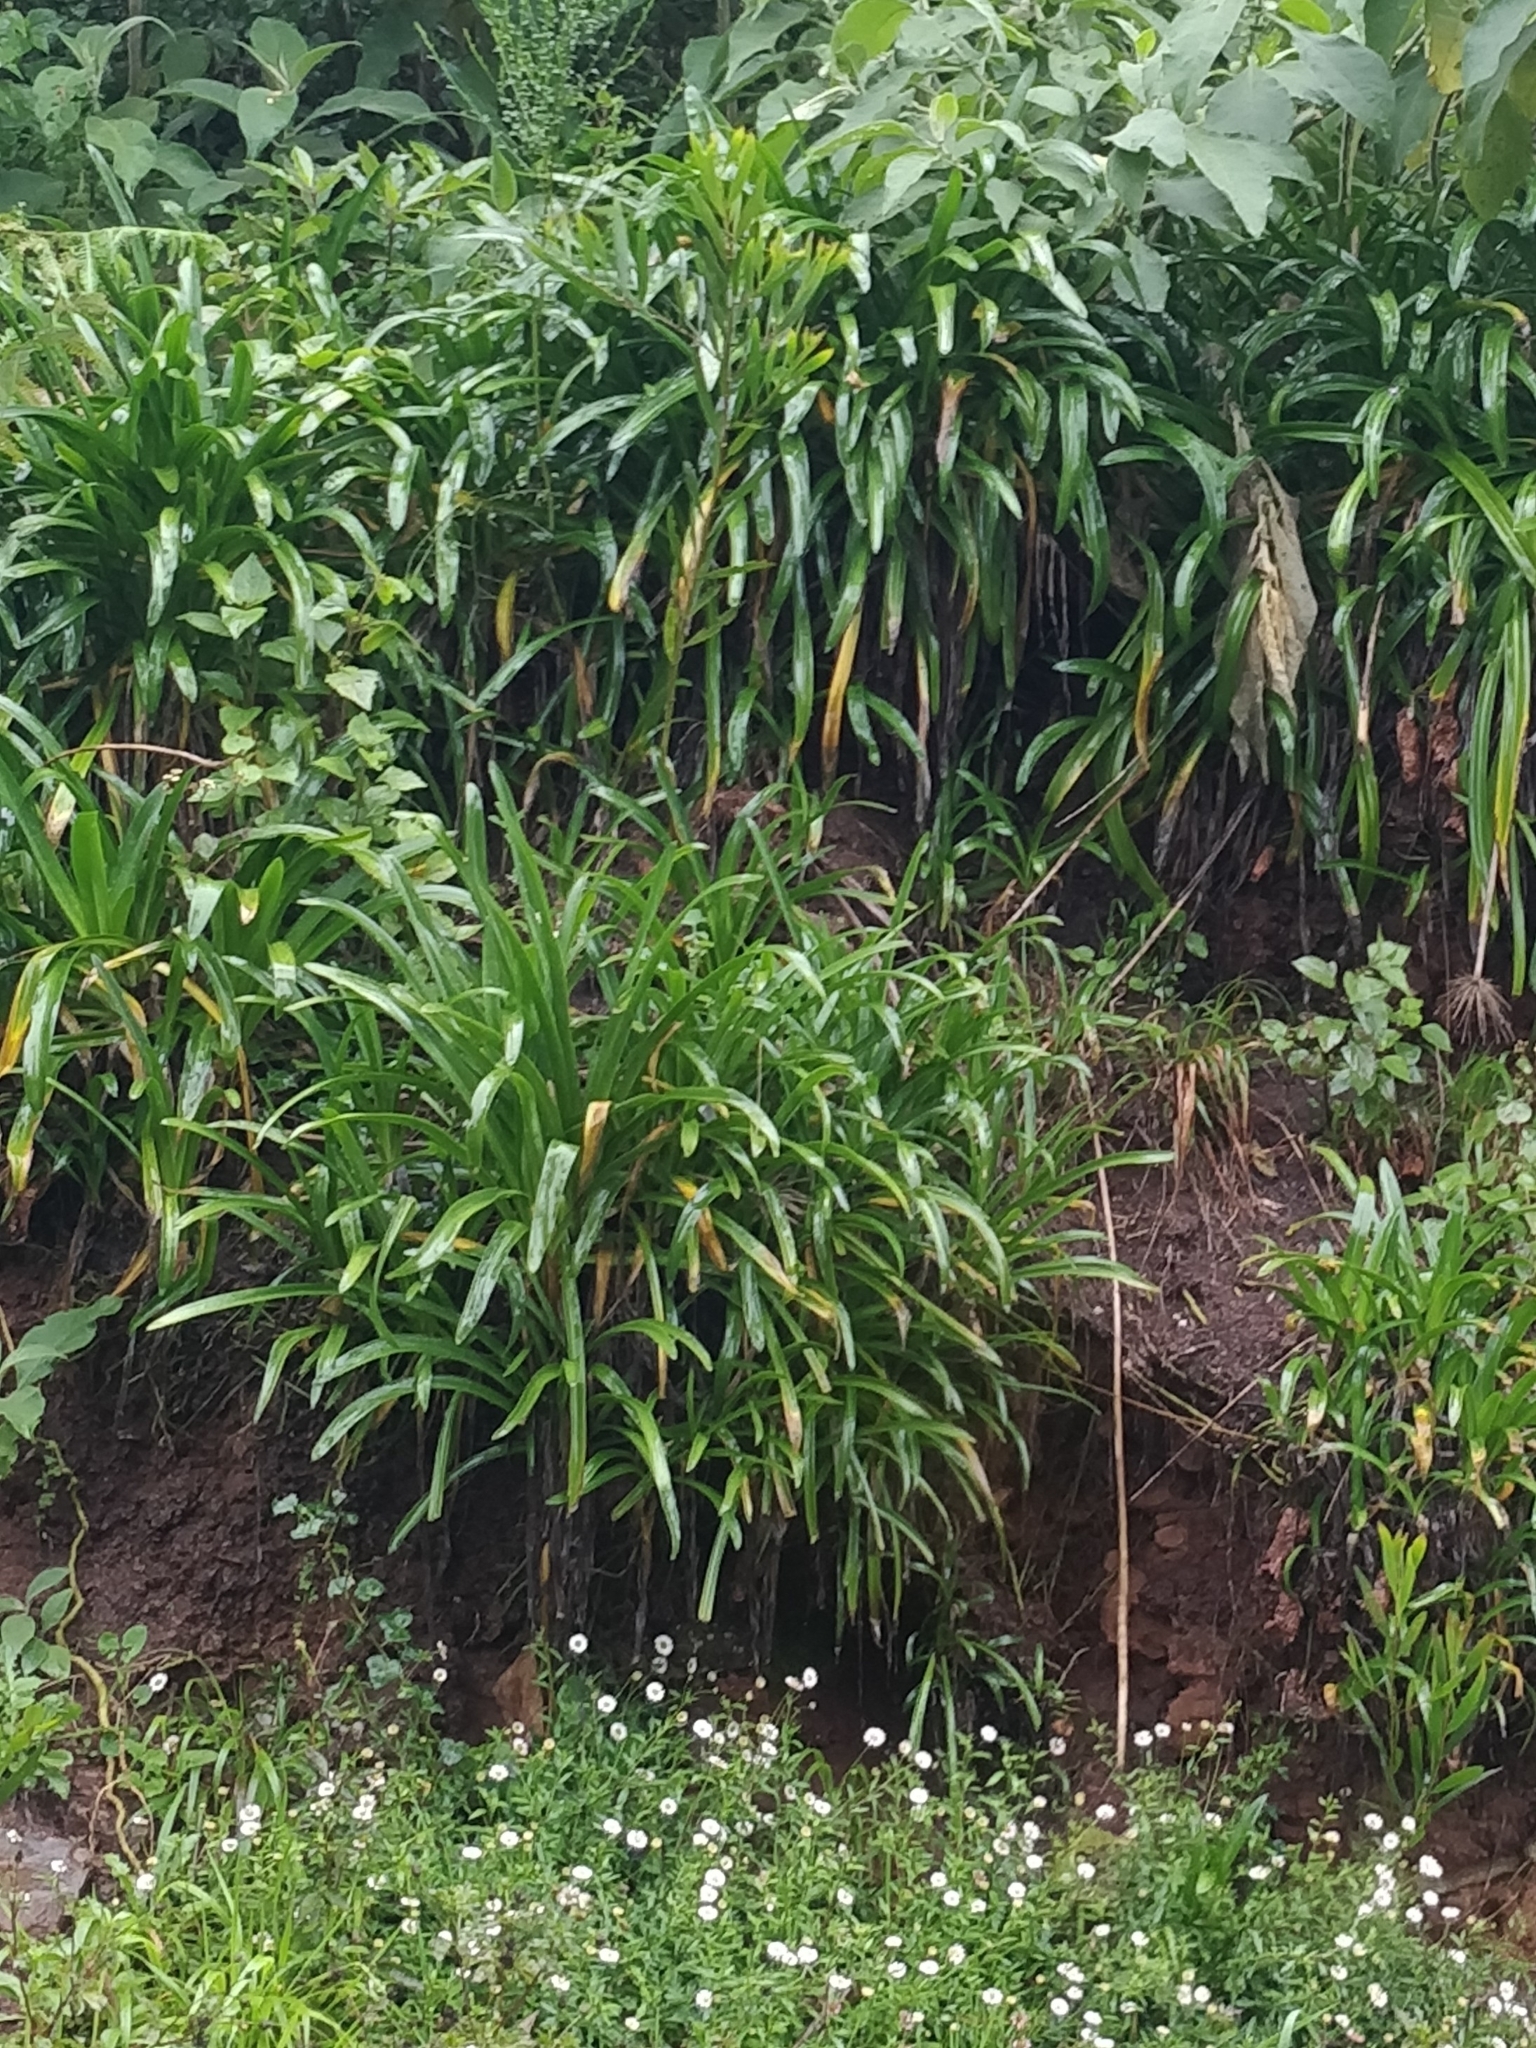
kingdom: Plantae
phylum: Tracheophyta
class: Liliopsida
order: Asparagales
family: Amaryllidaceae
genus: Agapanthus
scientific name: Agapanthus praecox
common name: African-lily
